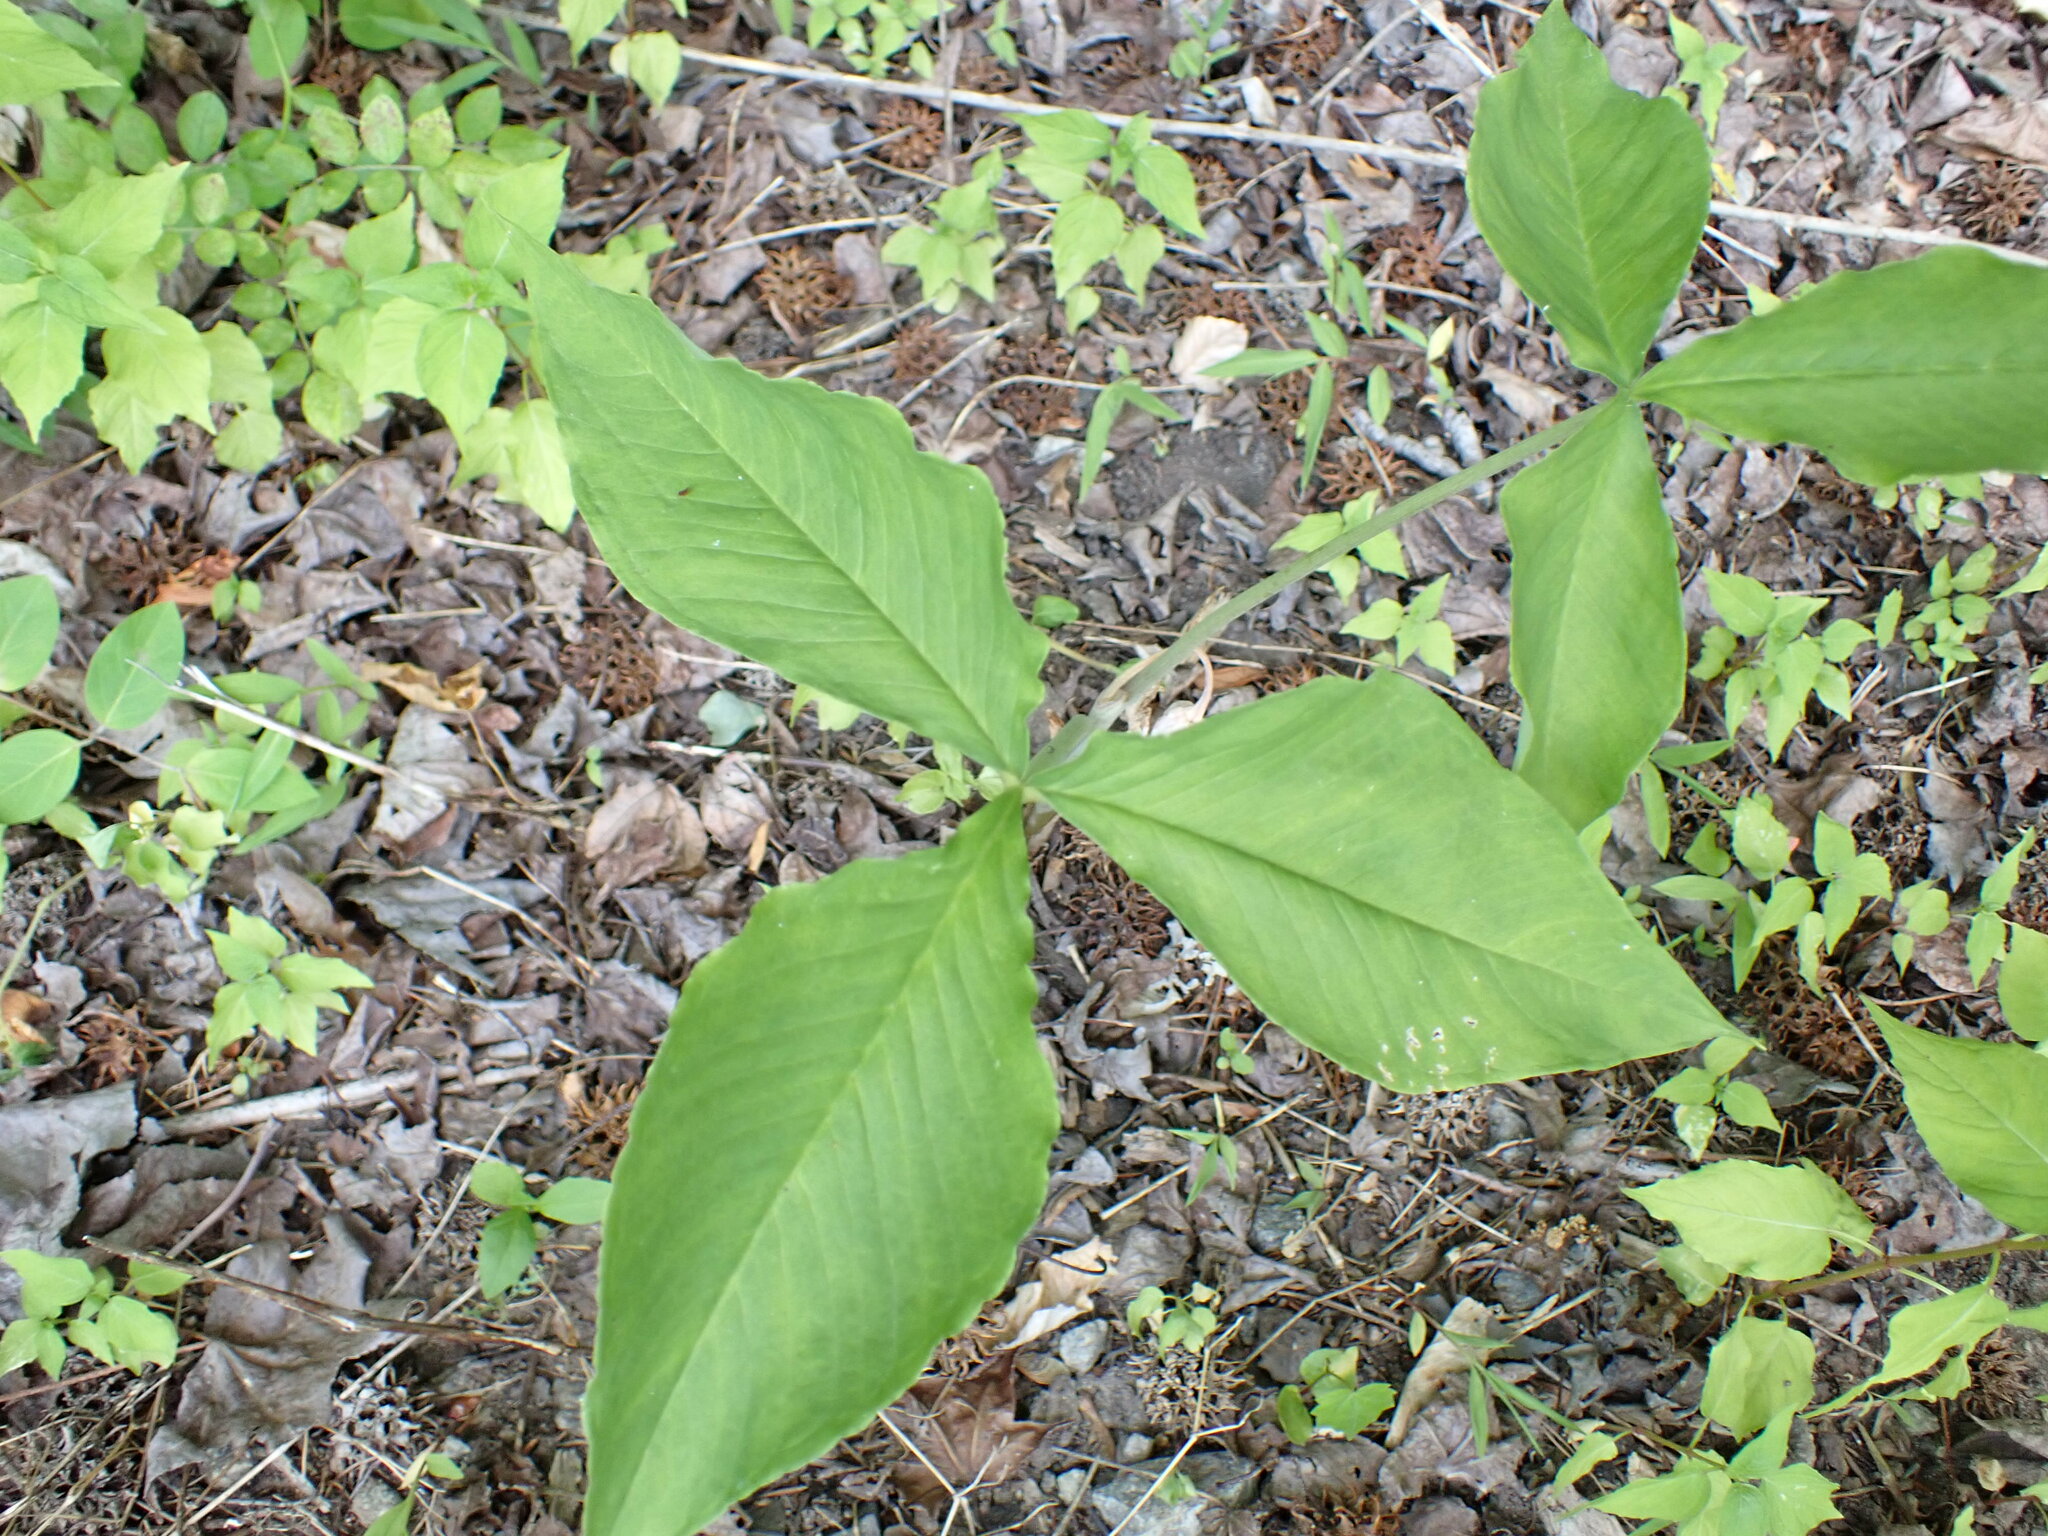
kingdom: Plantae
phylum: Tracheophyta
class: Liliopsida
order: Alismatales
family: Araceae
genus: Arisaema
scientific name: Arisaema triphyllum
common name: Jack-in-the-pulpit
